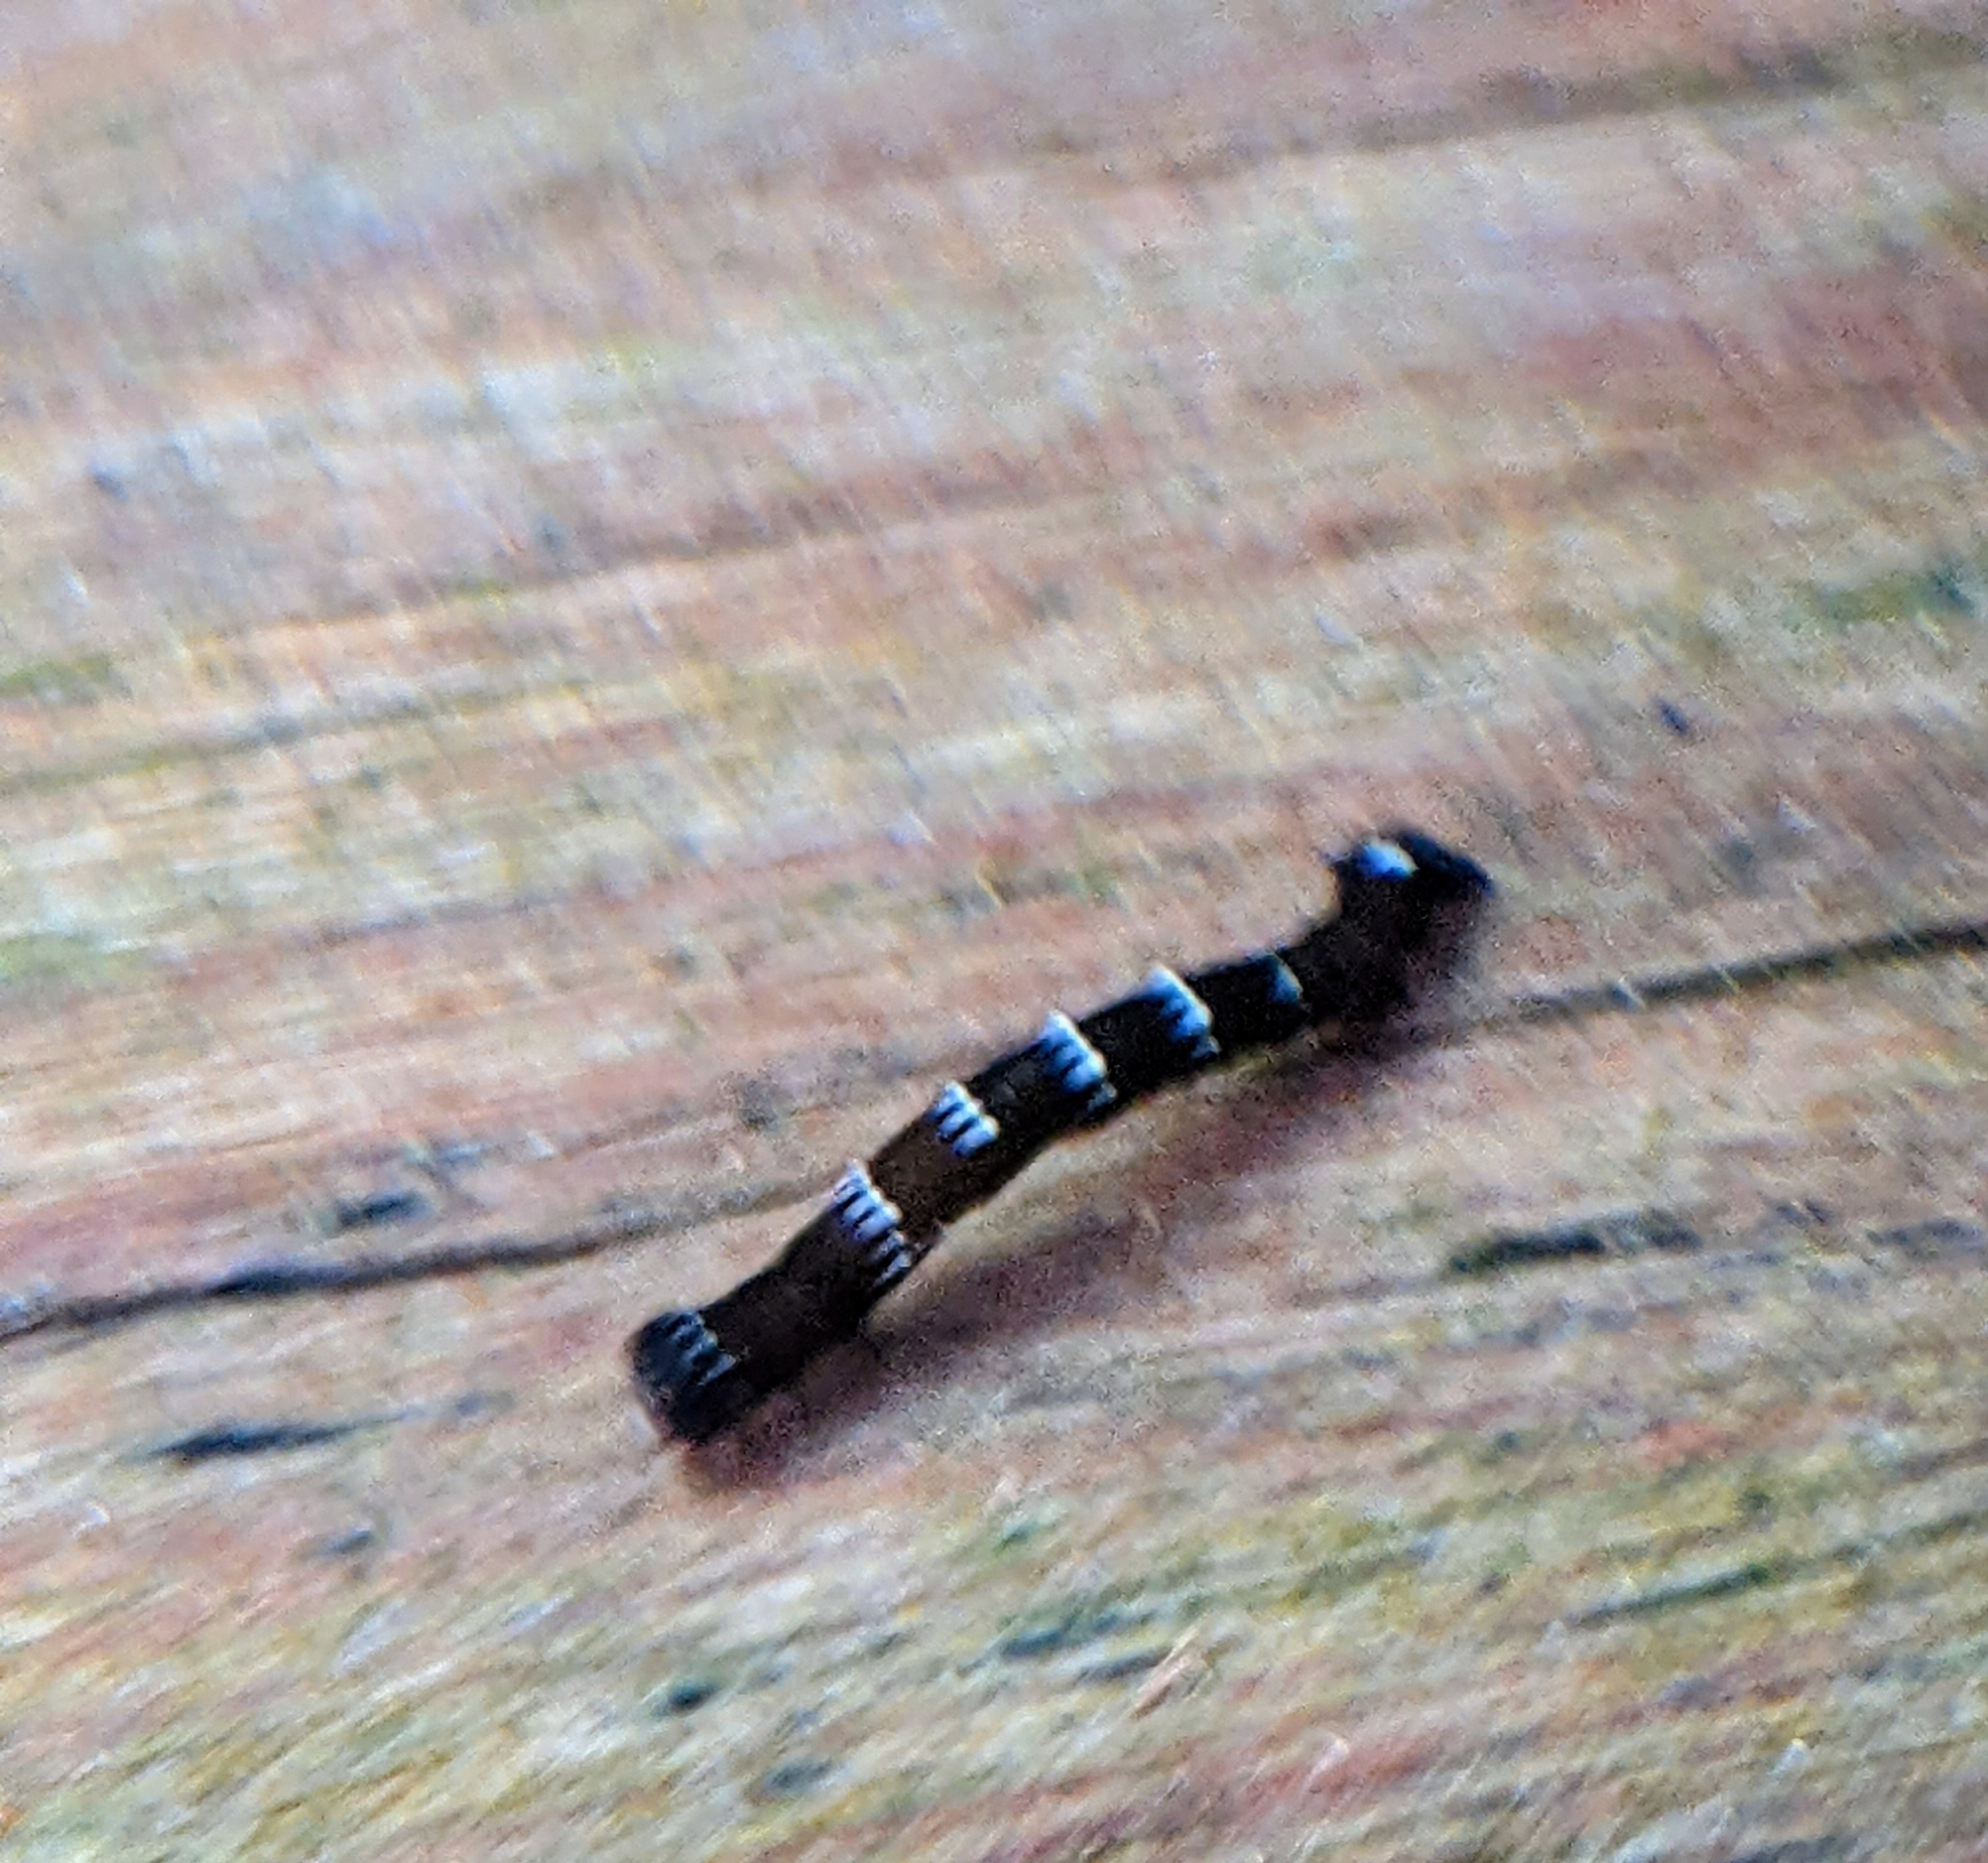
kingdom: Animalia
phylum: Arthropoda
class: Insecta
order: Lepidoptera
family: Geometridae
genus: Hyposidra
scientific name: Hyposidra talaca
